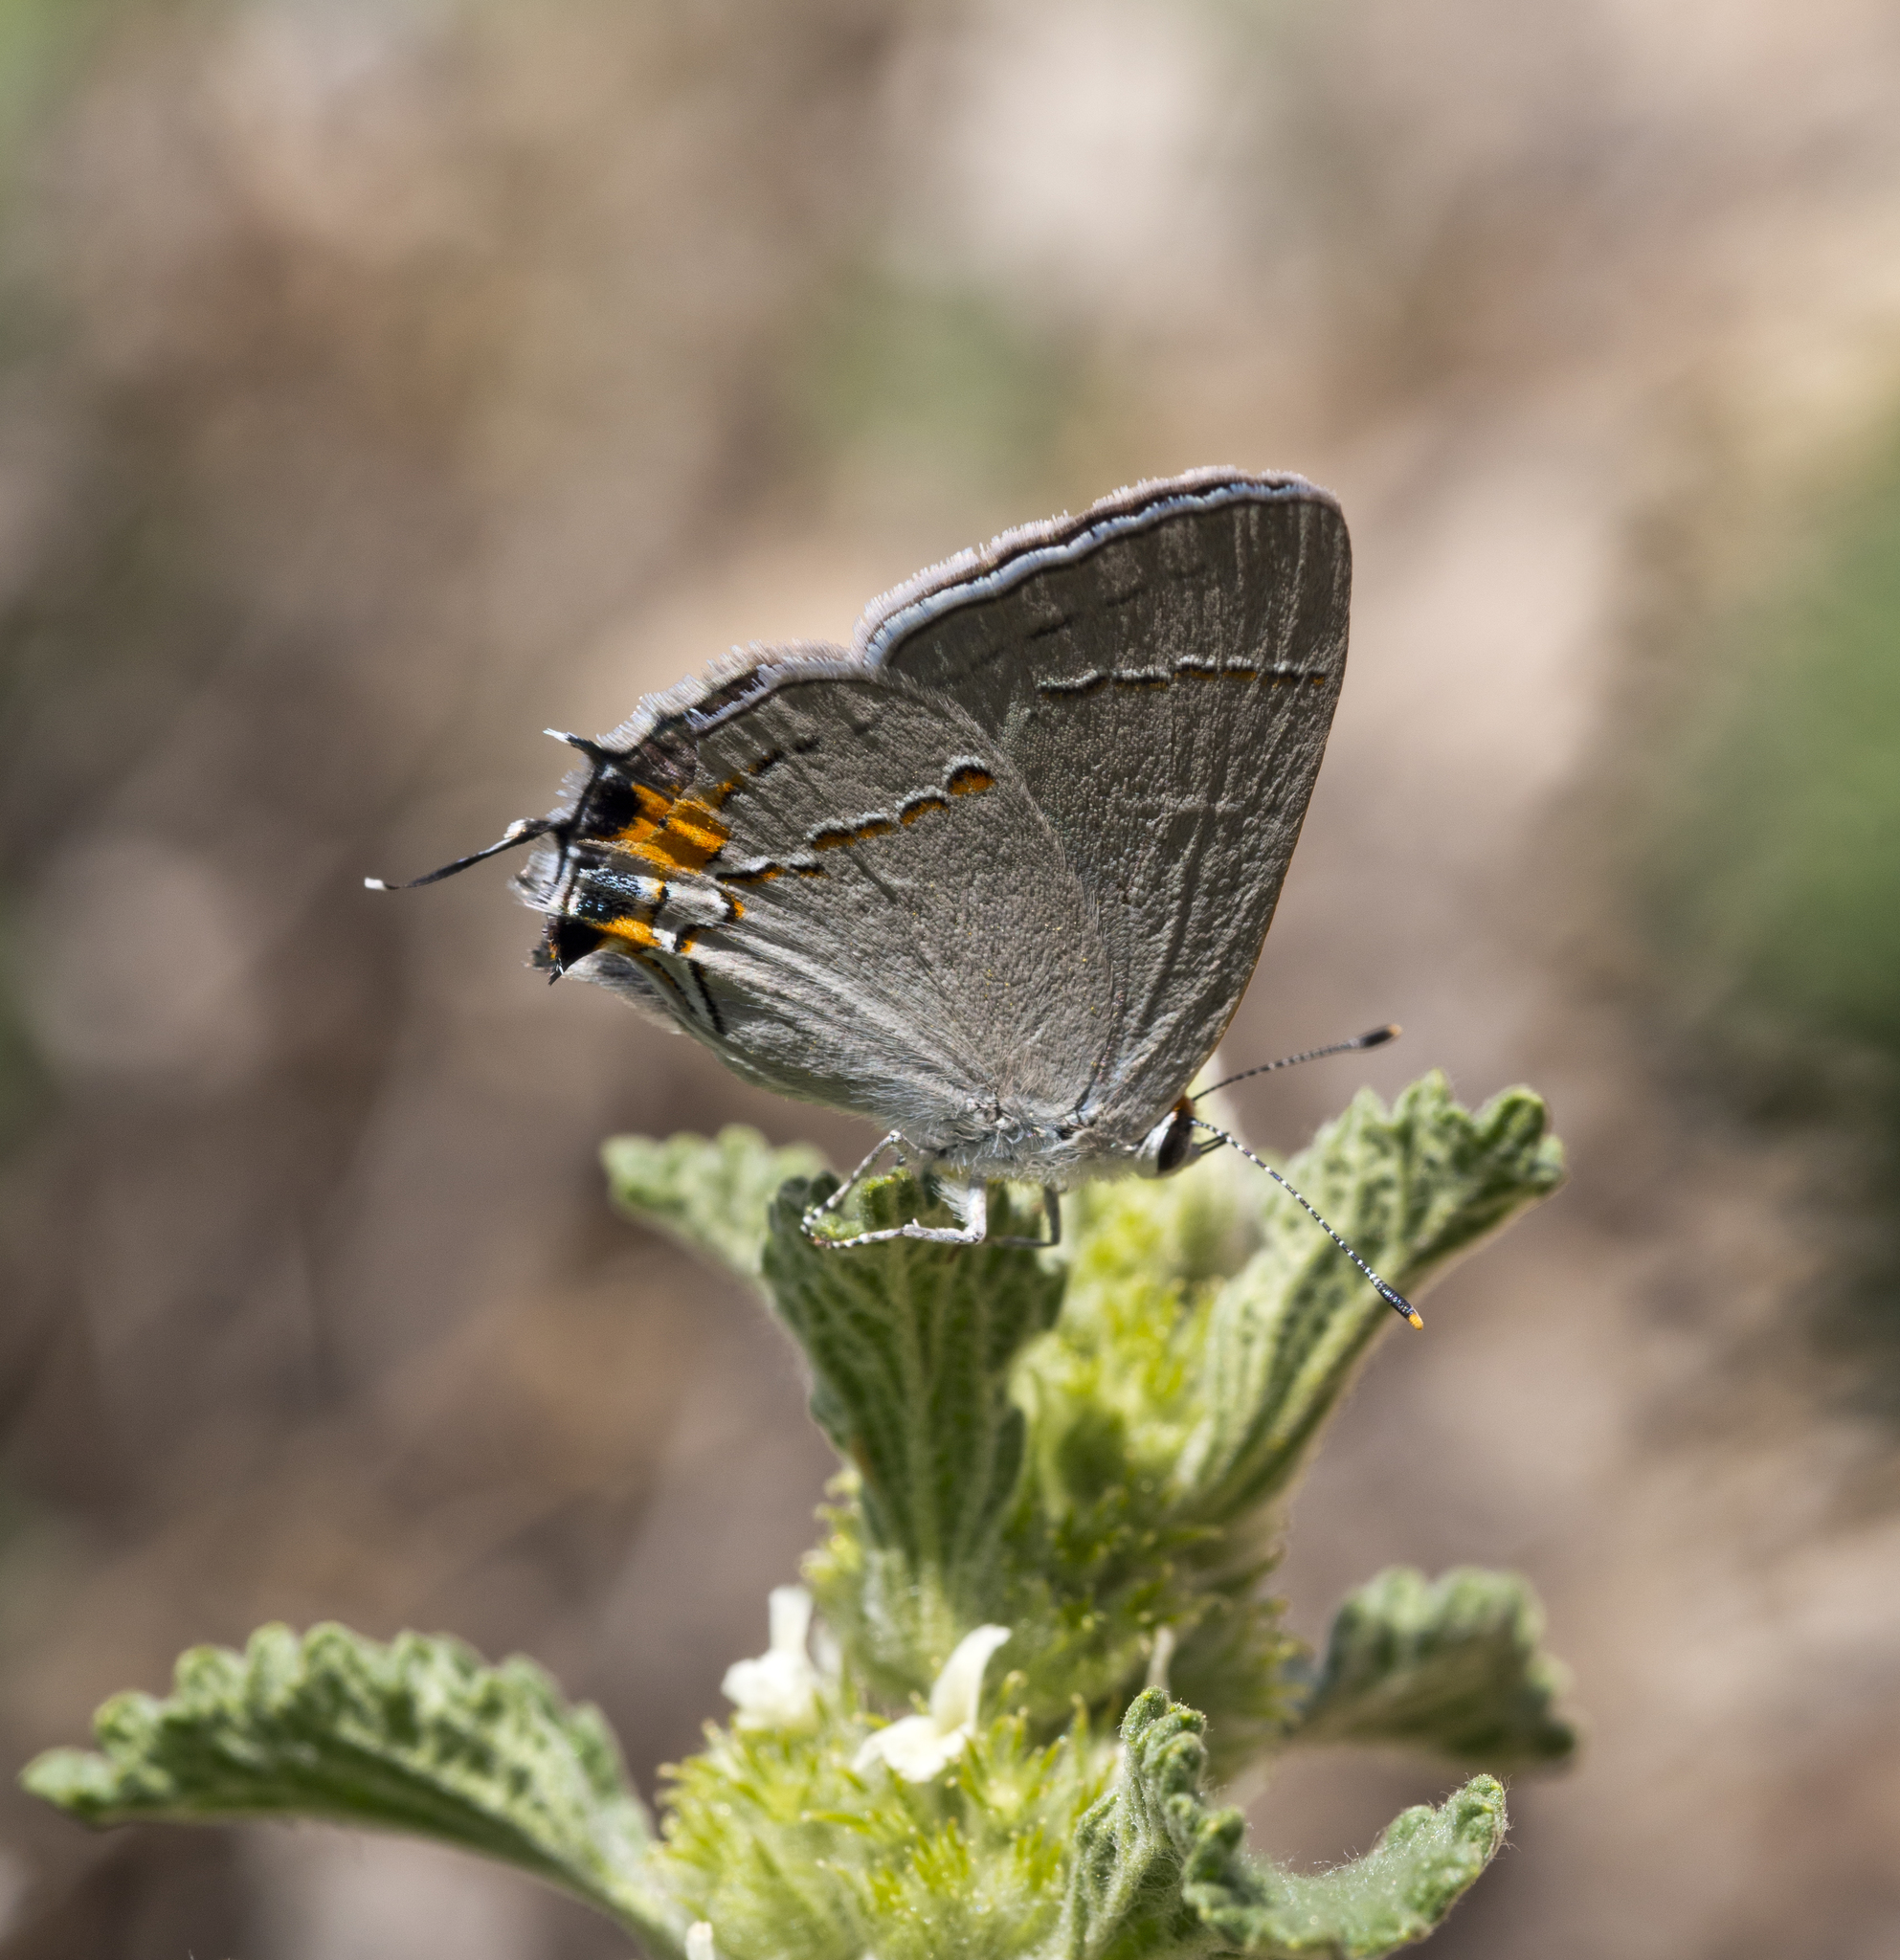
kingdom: Animalia
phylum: Arthropoda
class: Insecta
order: Lepidoptera
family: Lycaenidae
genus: Strymon
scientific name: Strymon melinus
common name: Gray hairstreak
